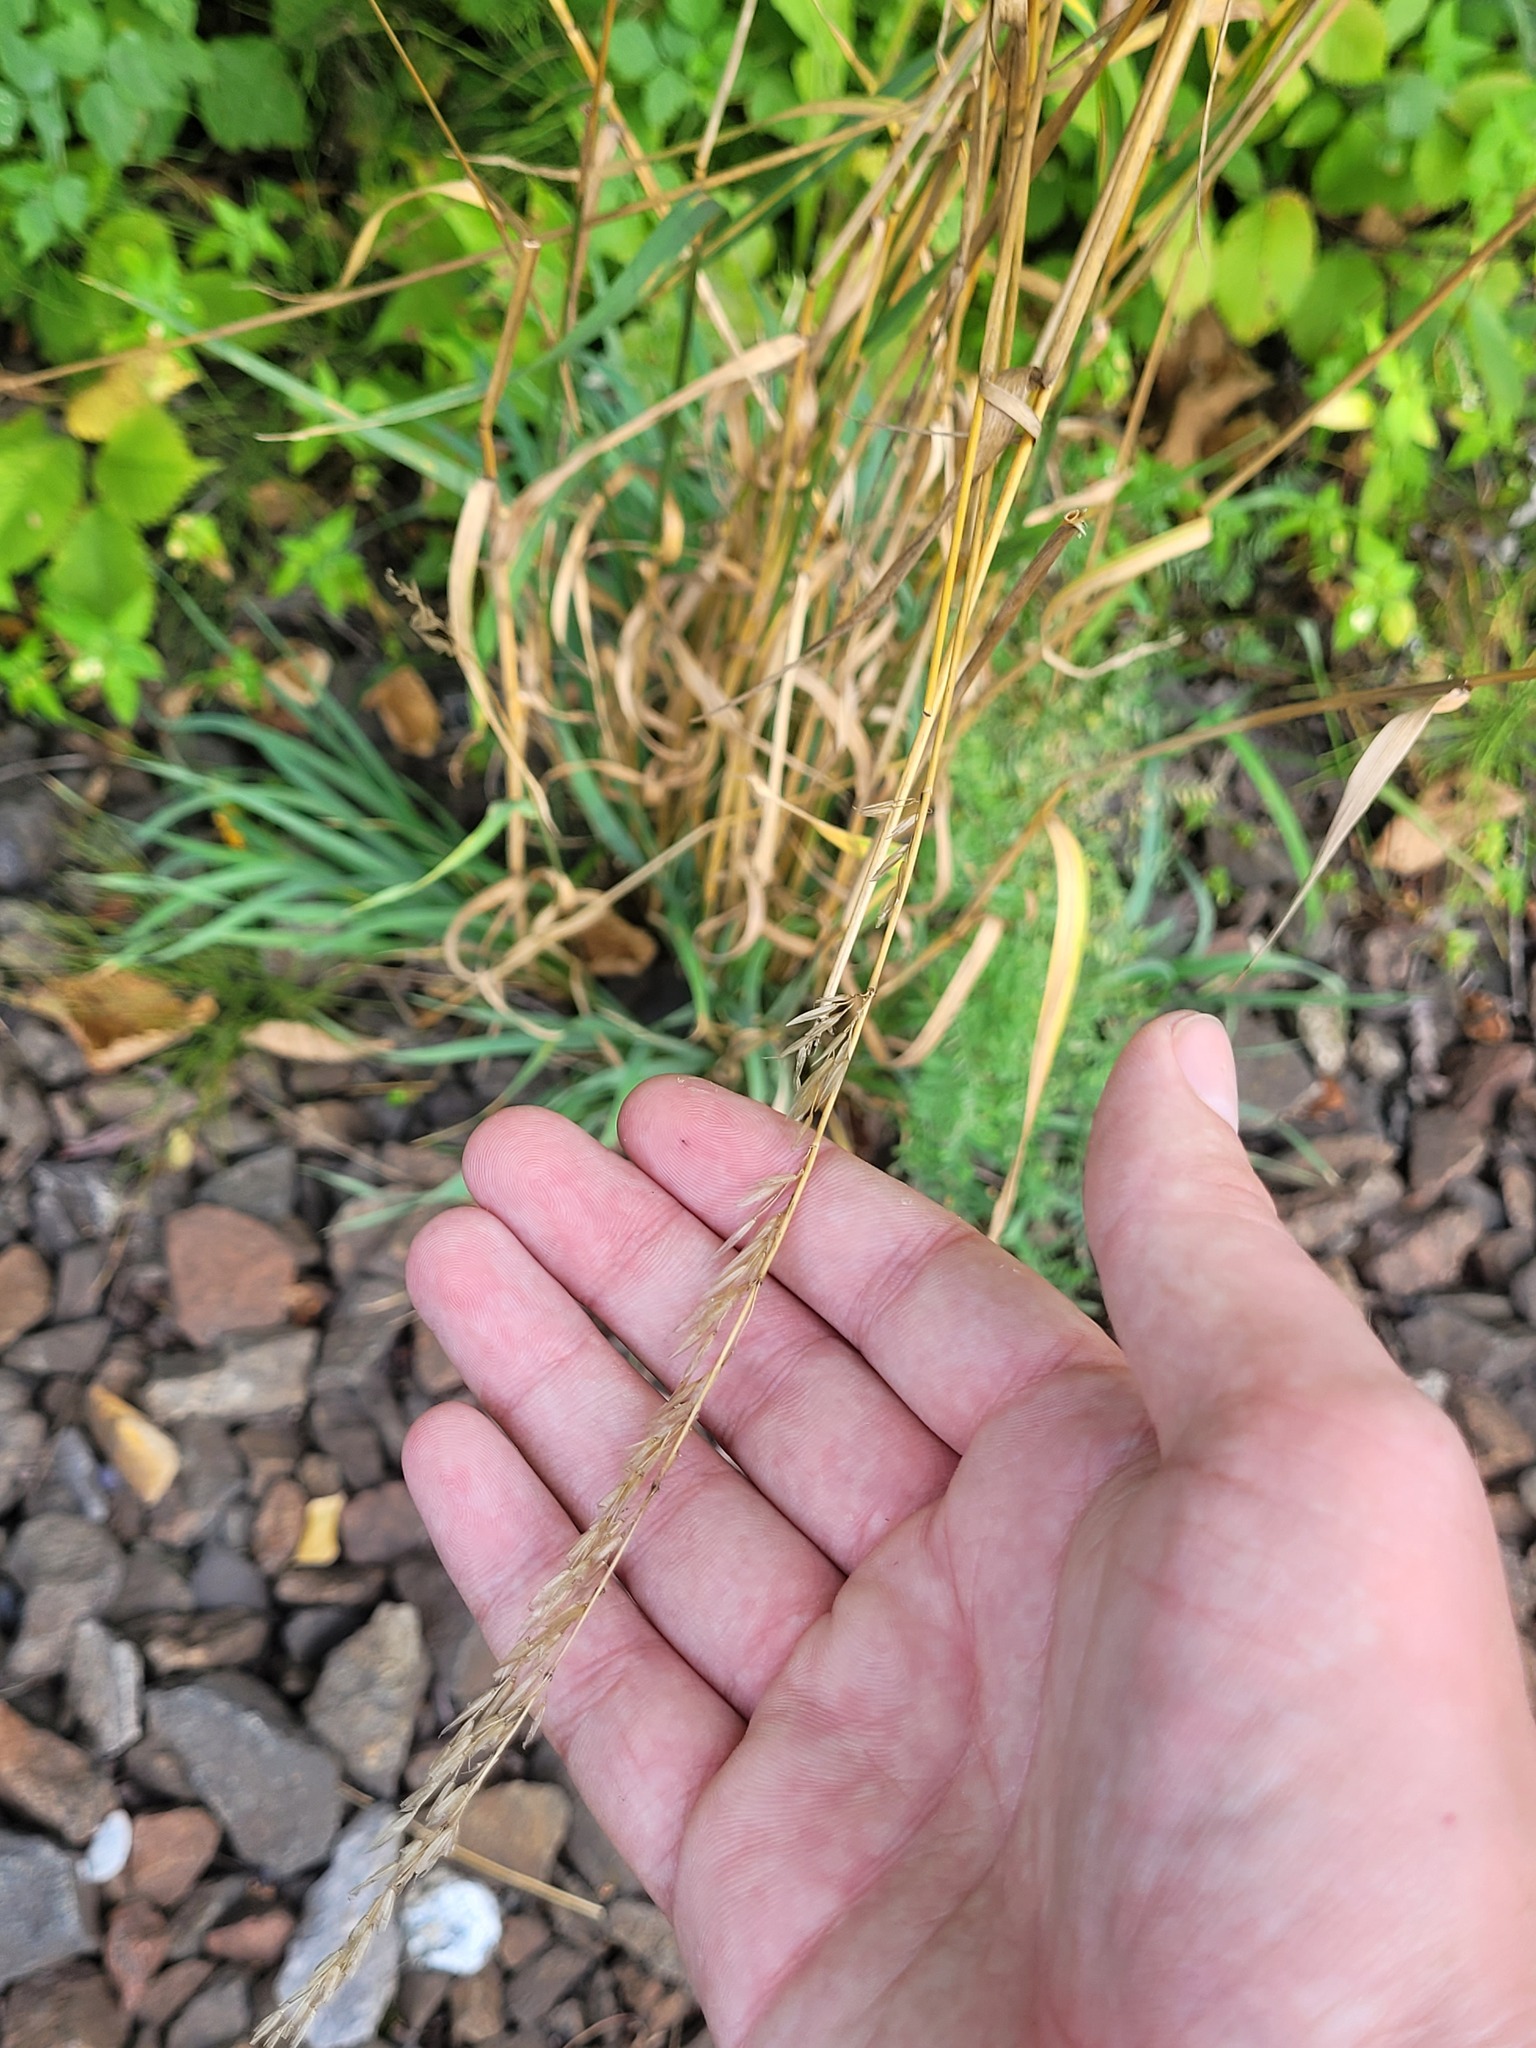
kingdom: Plantae
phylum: Tracheophyta
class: Liliopsida
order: Poales
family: Poaceae
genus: Arrhenatherum
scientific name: Arrhenatherum elatius
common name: Tall oatgrass
